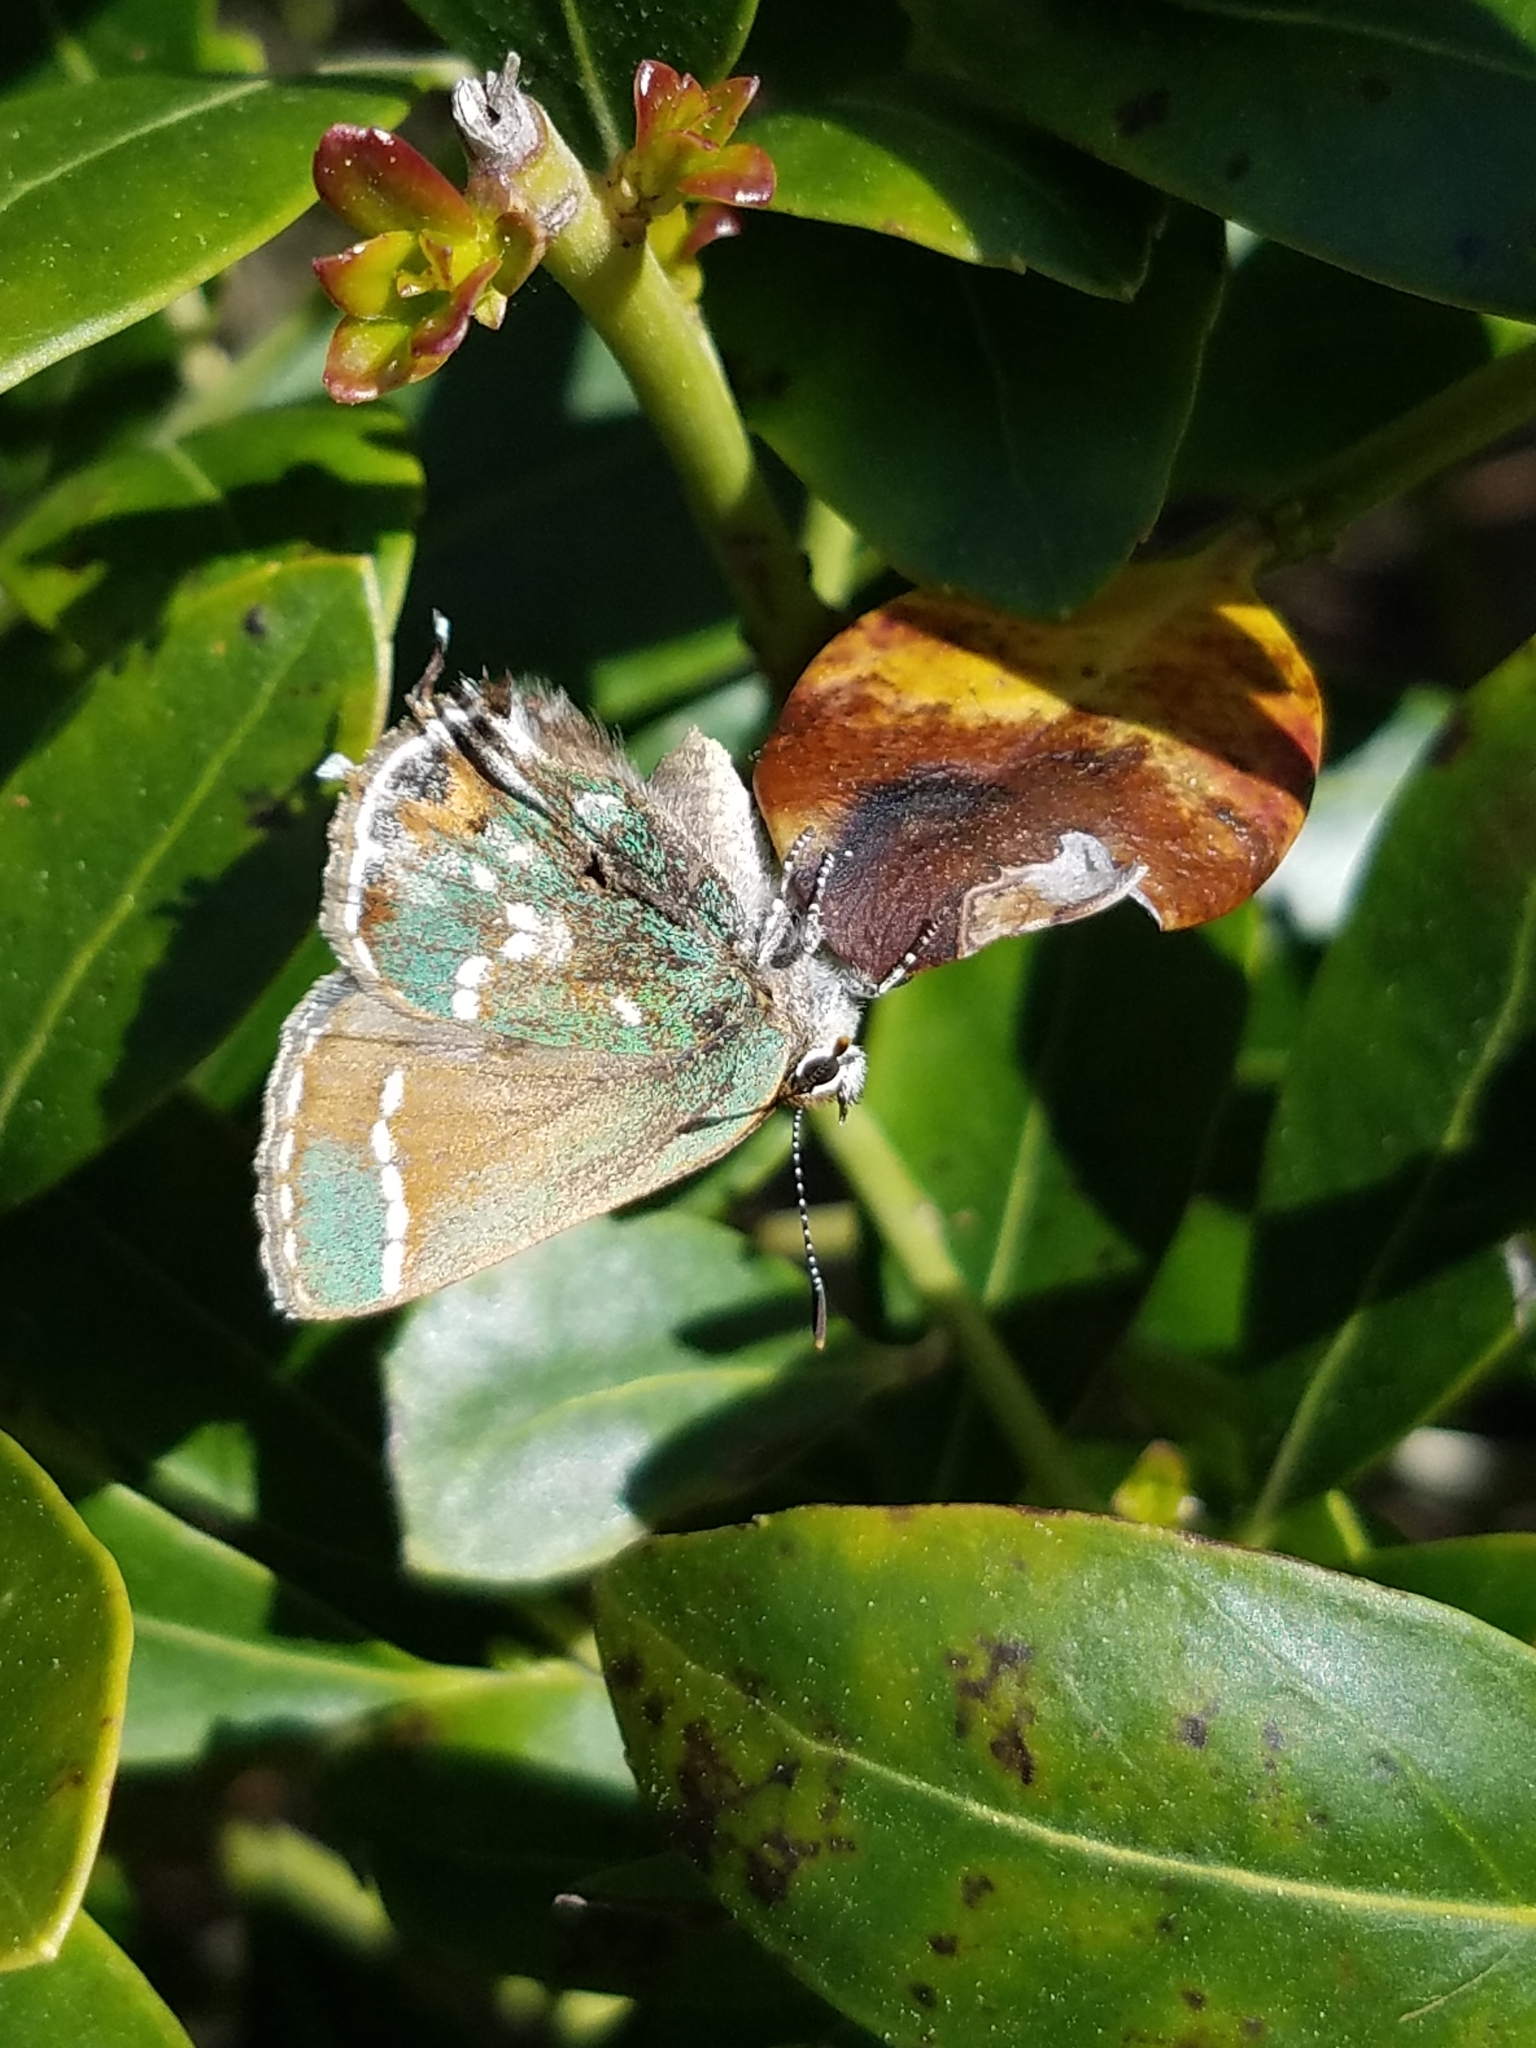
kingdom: Animalia
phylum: Arthropoda
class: Insecta
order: Lepidoptera
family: Lycaenidae
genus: Mitoura
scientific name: Mitoura gryneus
